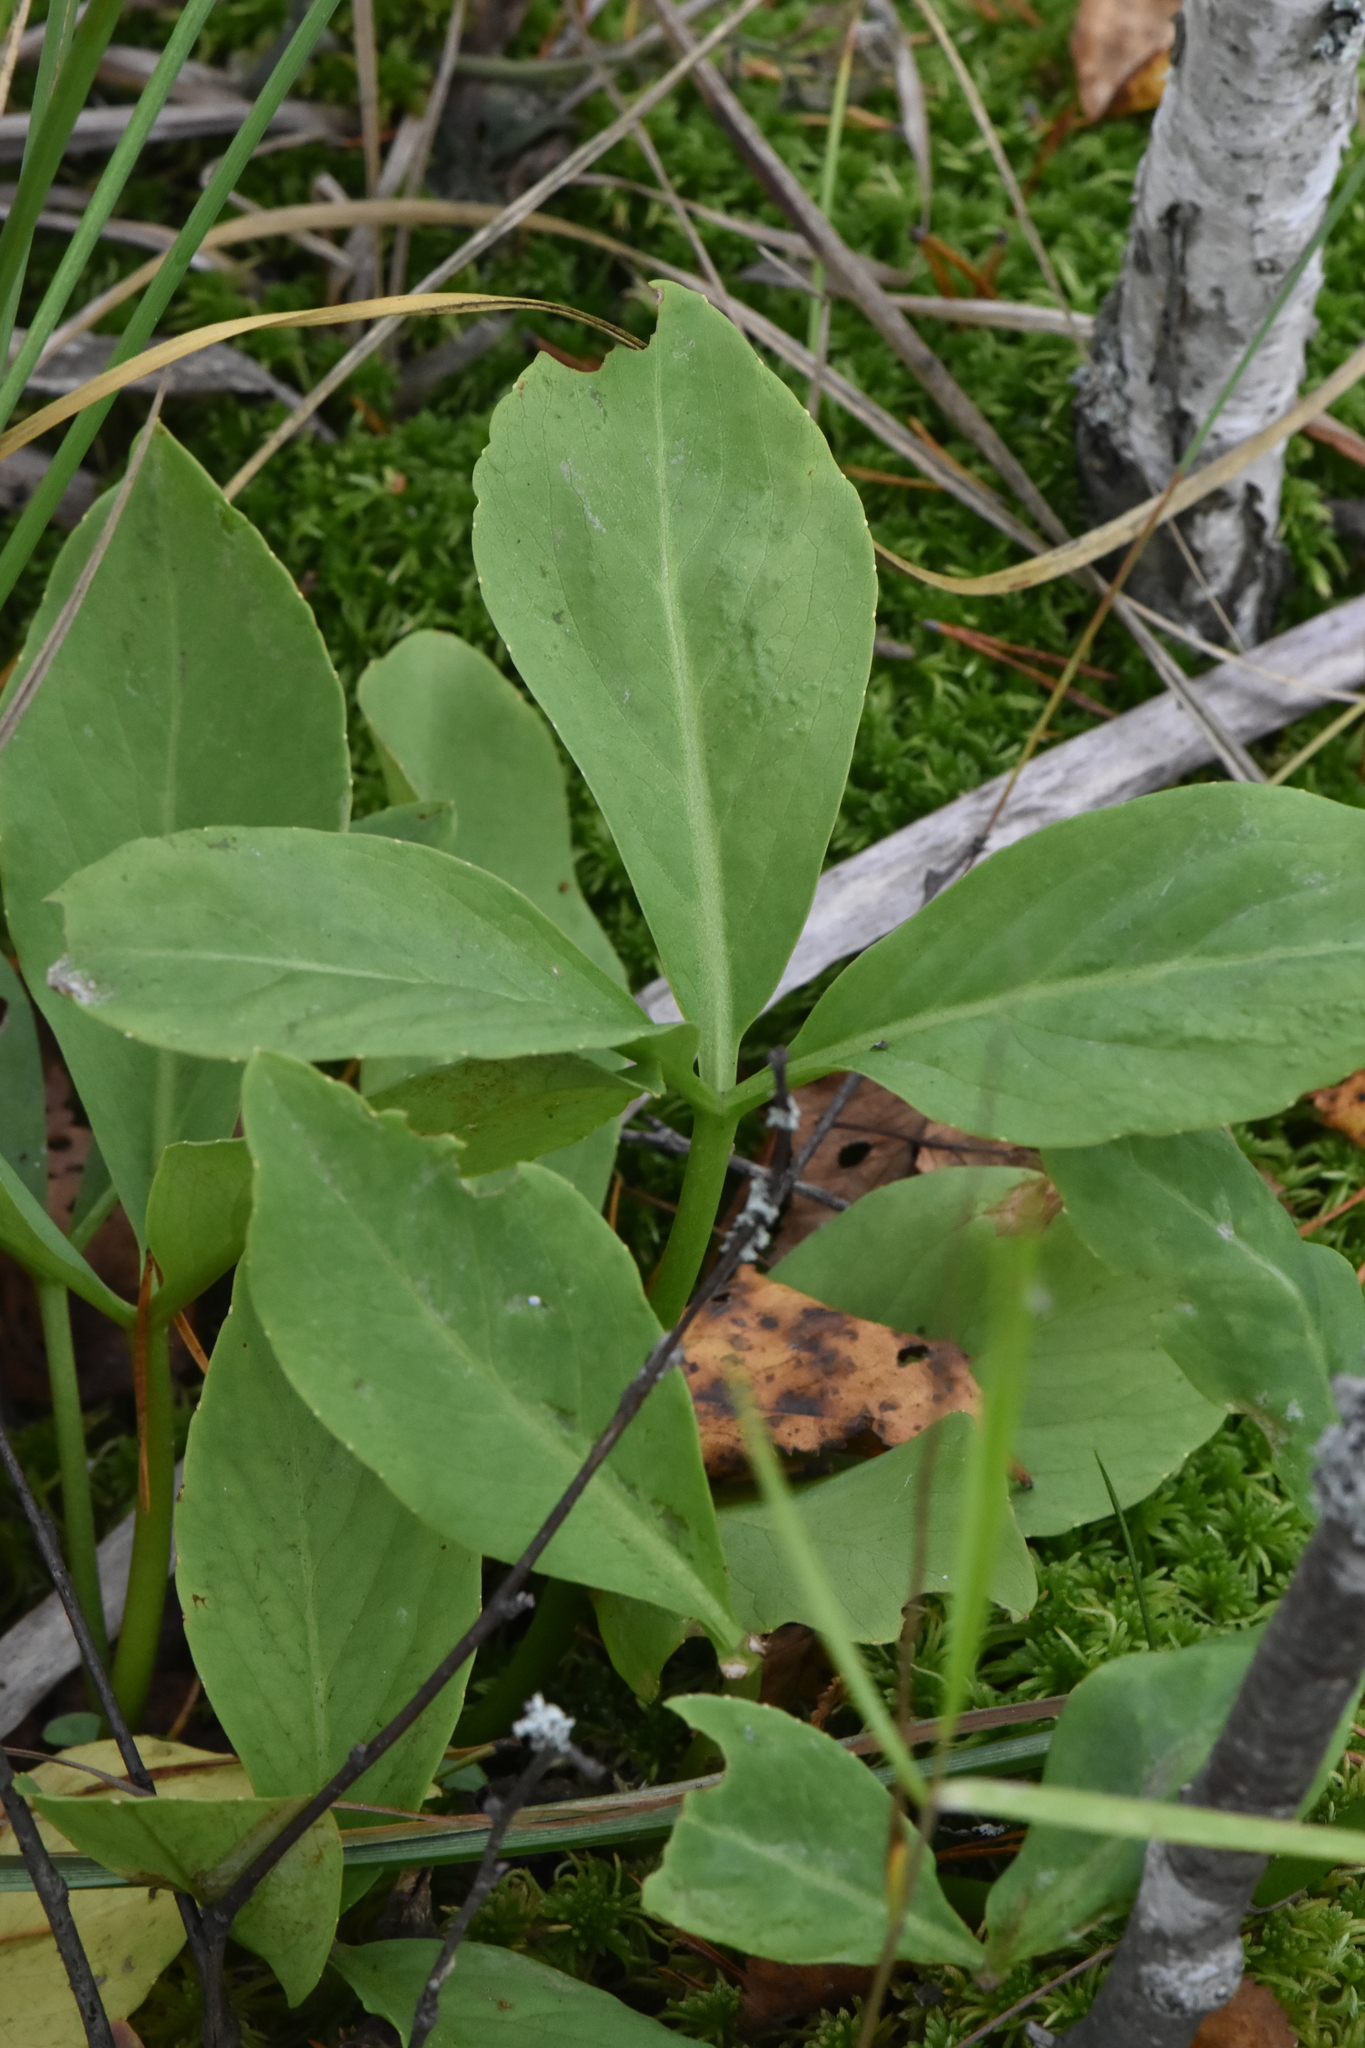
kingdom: Plantae
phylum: Tracheophyta
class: Magnoliopsida
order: Asterales
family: Menyanthaceae
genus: Menyanthes
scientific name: Menyanthes trifoliata
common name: Bogbean
